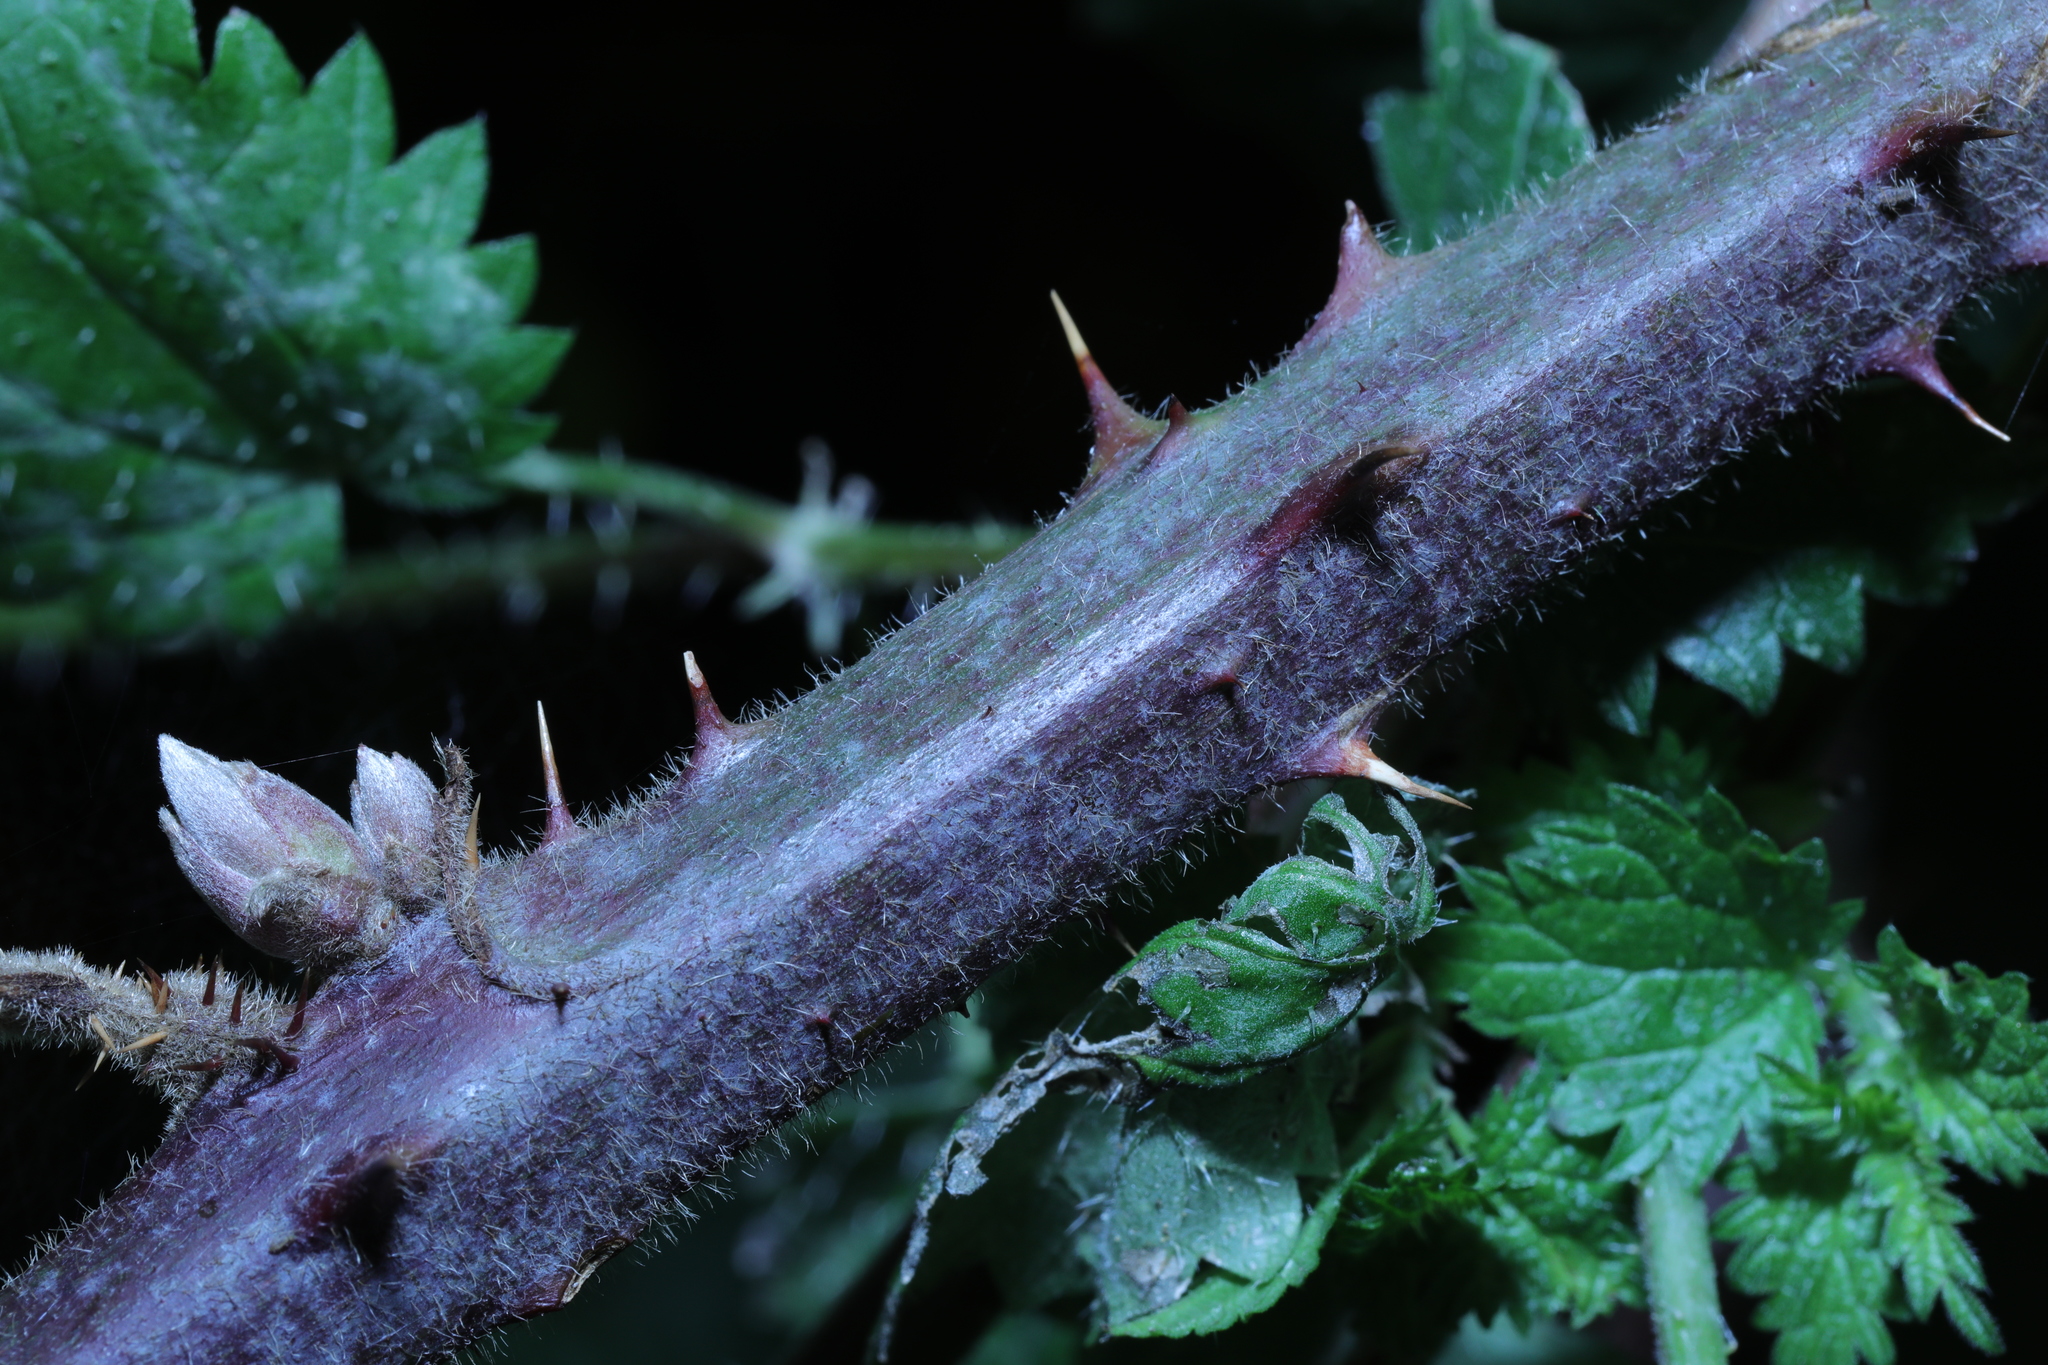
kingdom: Plantae
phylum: Tracheophyta
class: Magnoliopsida
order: Rosales
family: Rosaceae
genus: Rubus
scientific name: Rubus vestitus
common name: European blackberry
